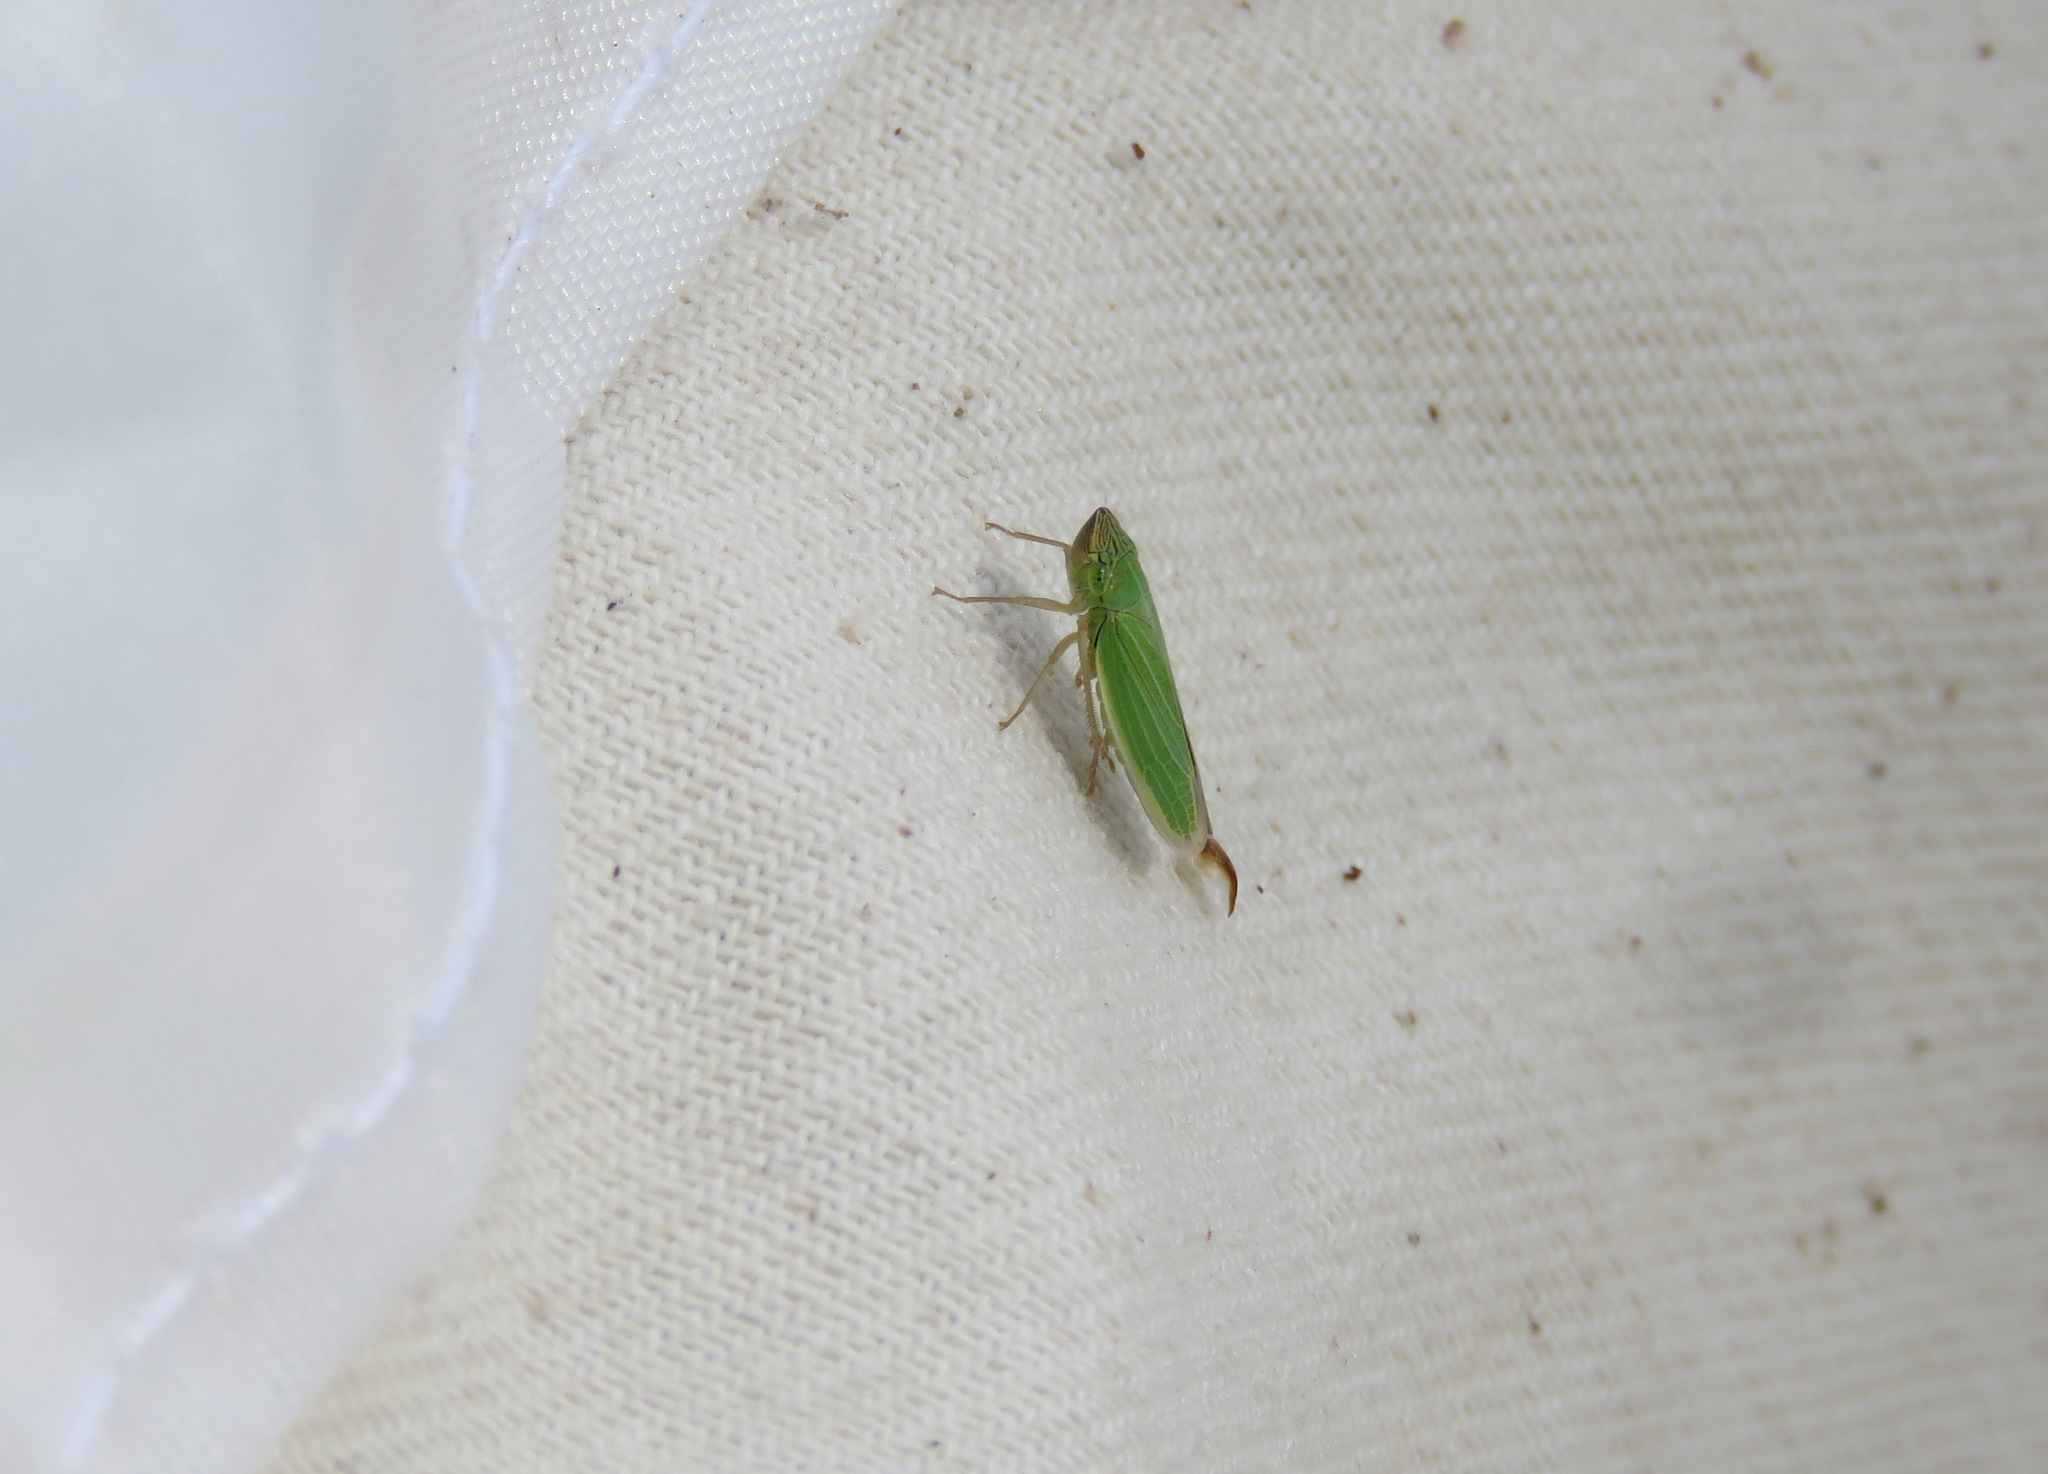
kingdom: Animalia
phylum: Arthropoda
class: Insecta
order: Hemiptera
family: Cicadellidae
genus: Draeculacephala
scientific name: Draeculacephala angulifera
